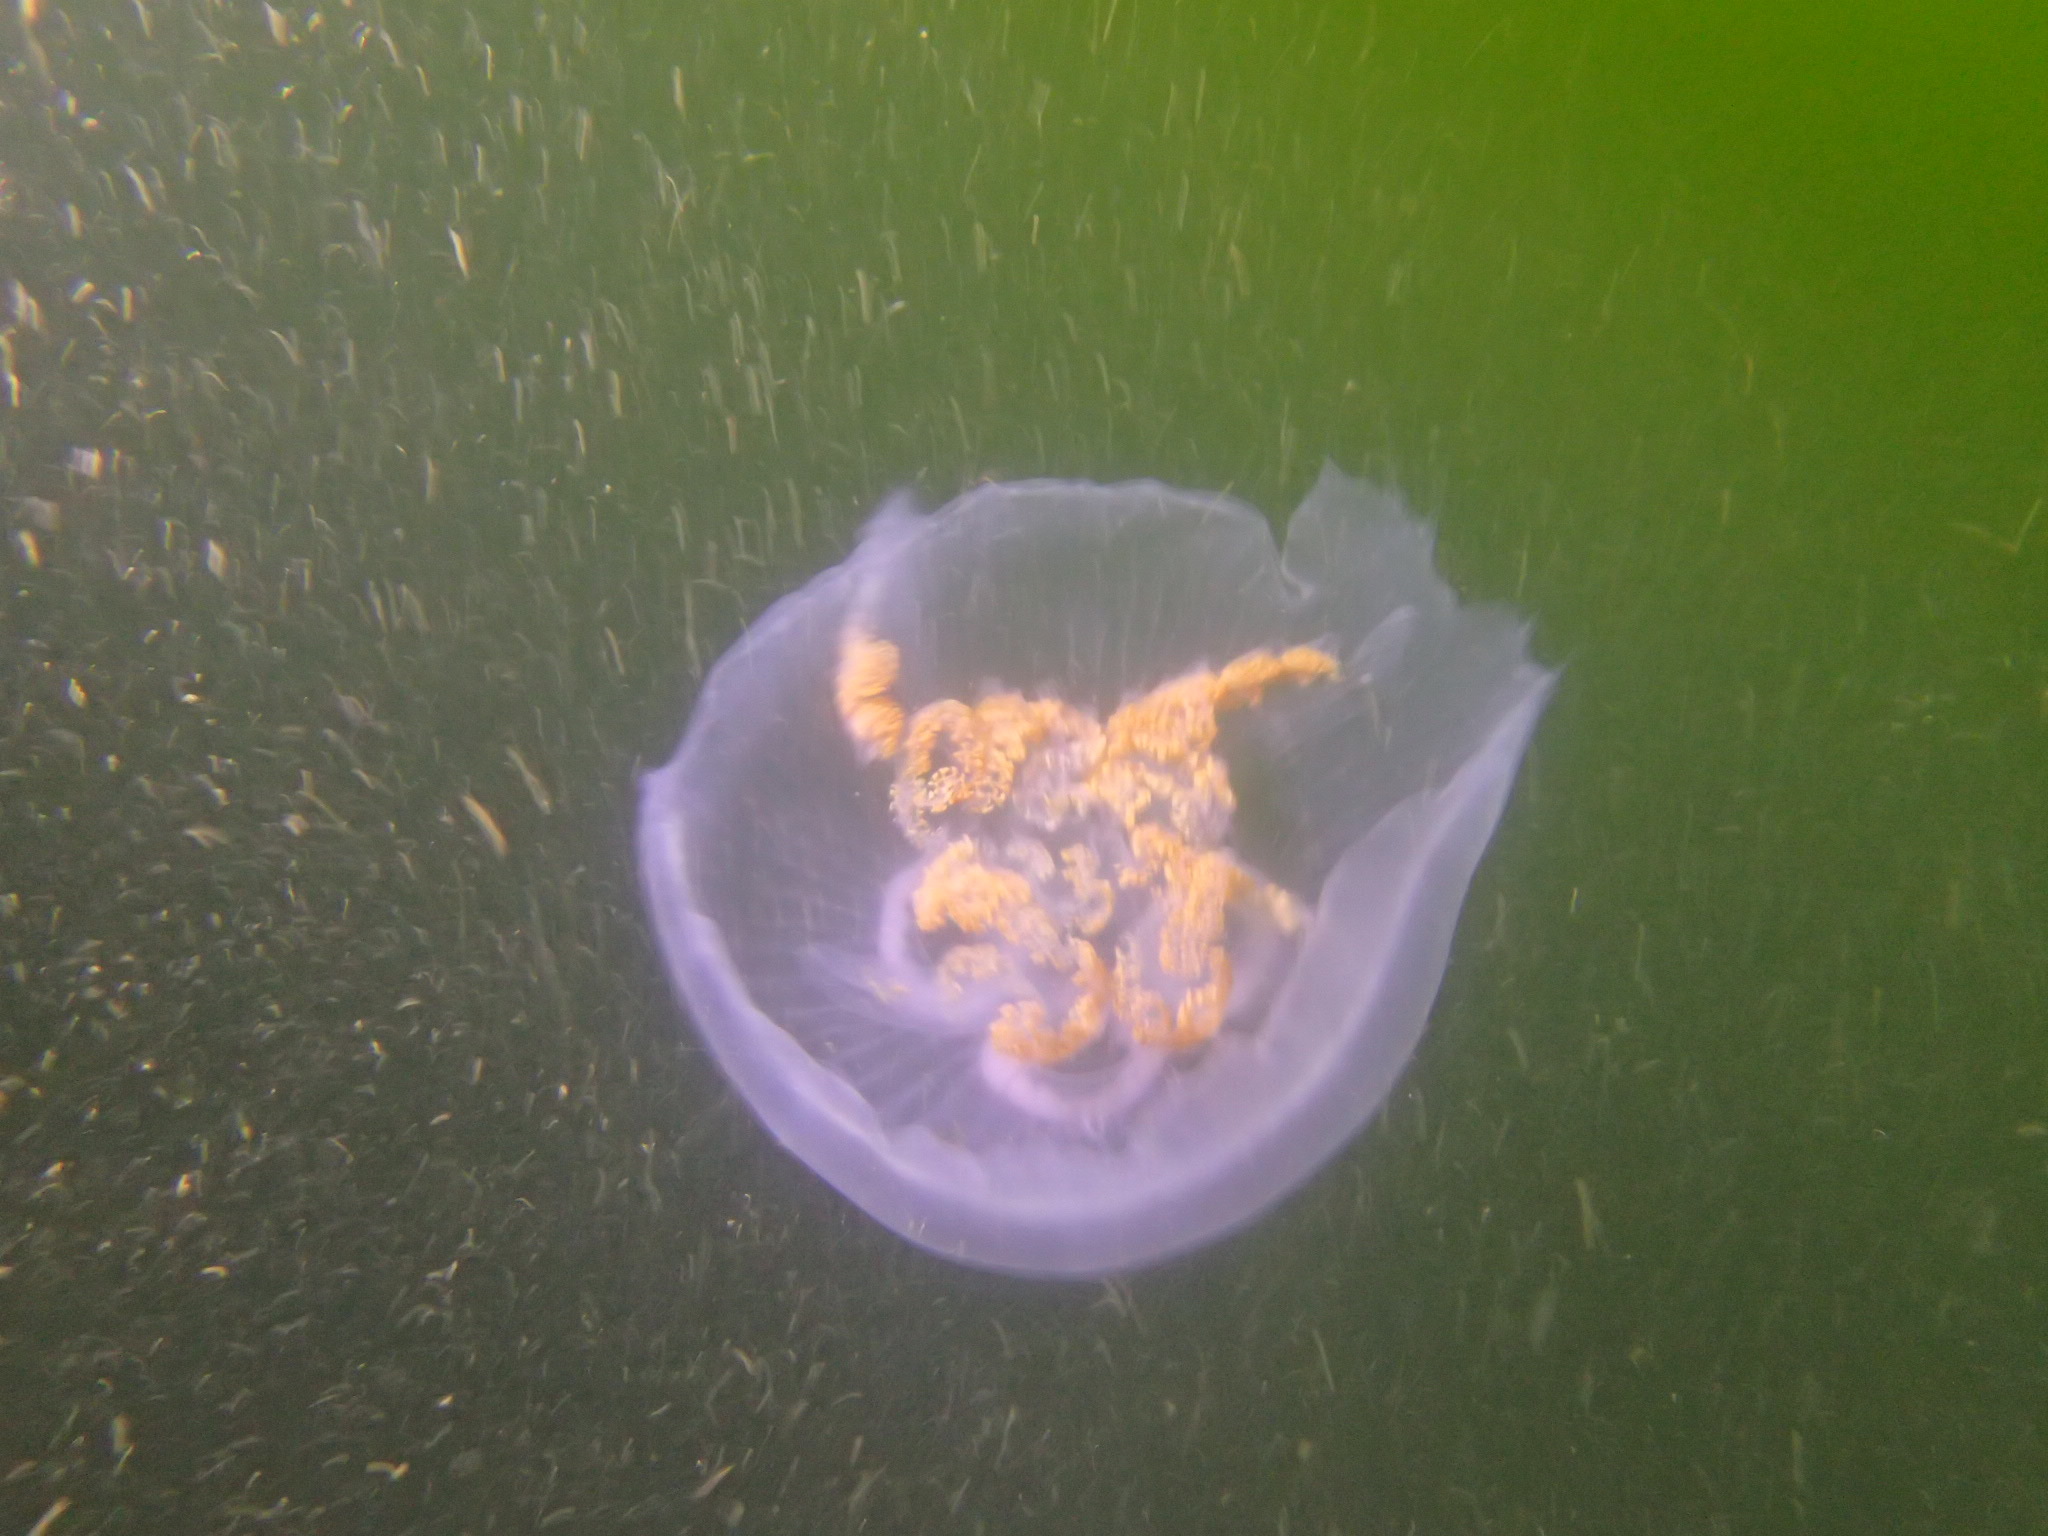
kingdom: Animalia
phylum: Cnidaria
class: Scyphozoa
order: Semaeostomeae
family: Ulmaridae
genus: Aurelia
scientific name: Aurelia aurita
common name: Moon jellyfish
